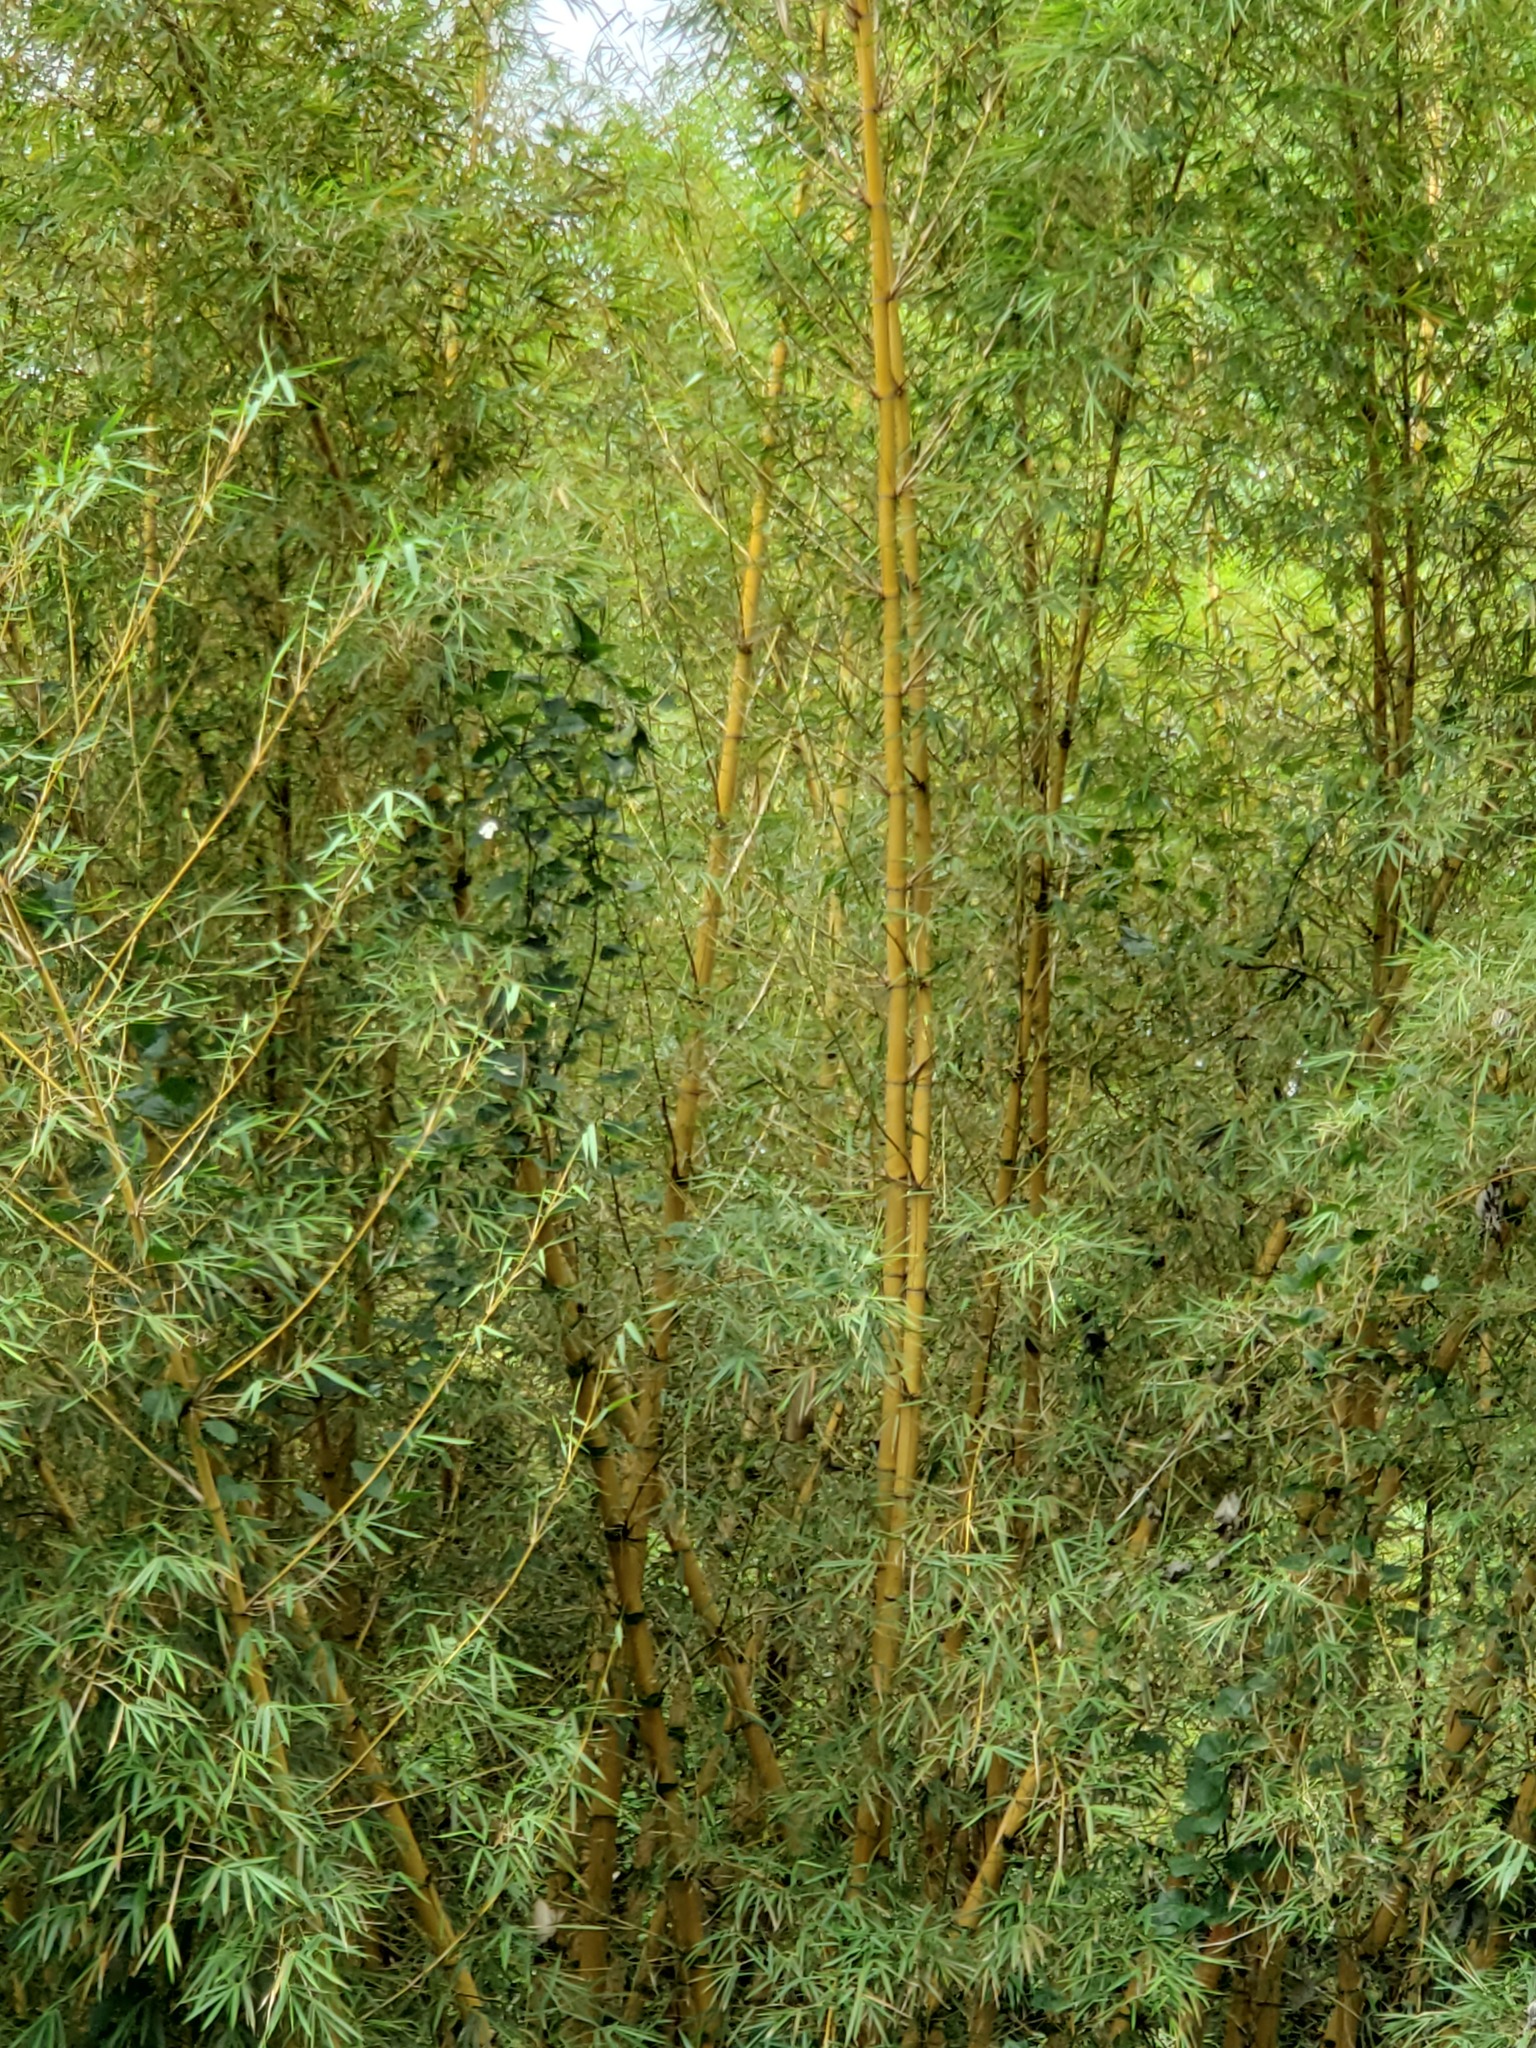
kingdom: Plantae
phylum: Tracheophyta
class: Liliopsida
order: Poales
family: Poaceae
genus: Bambusa
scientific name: Bambusa vulgaris
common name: Common bamboo
